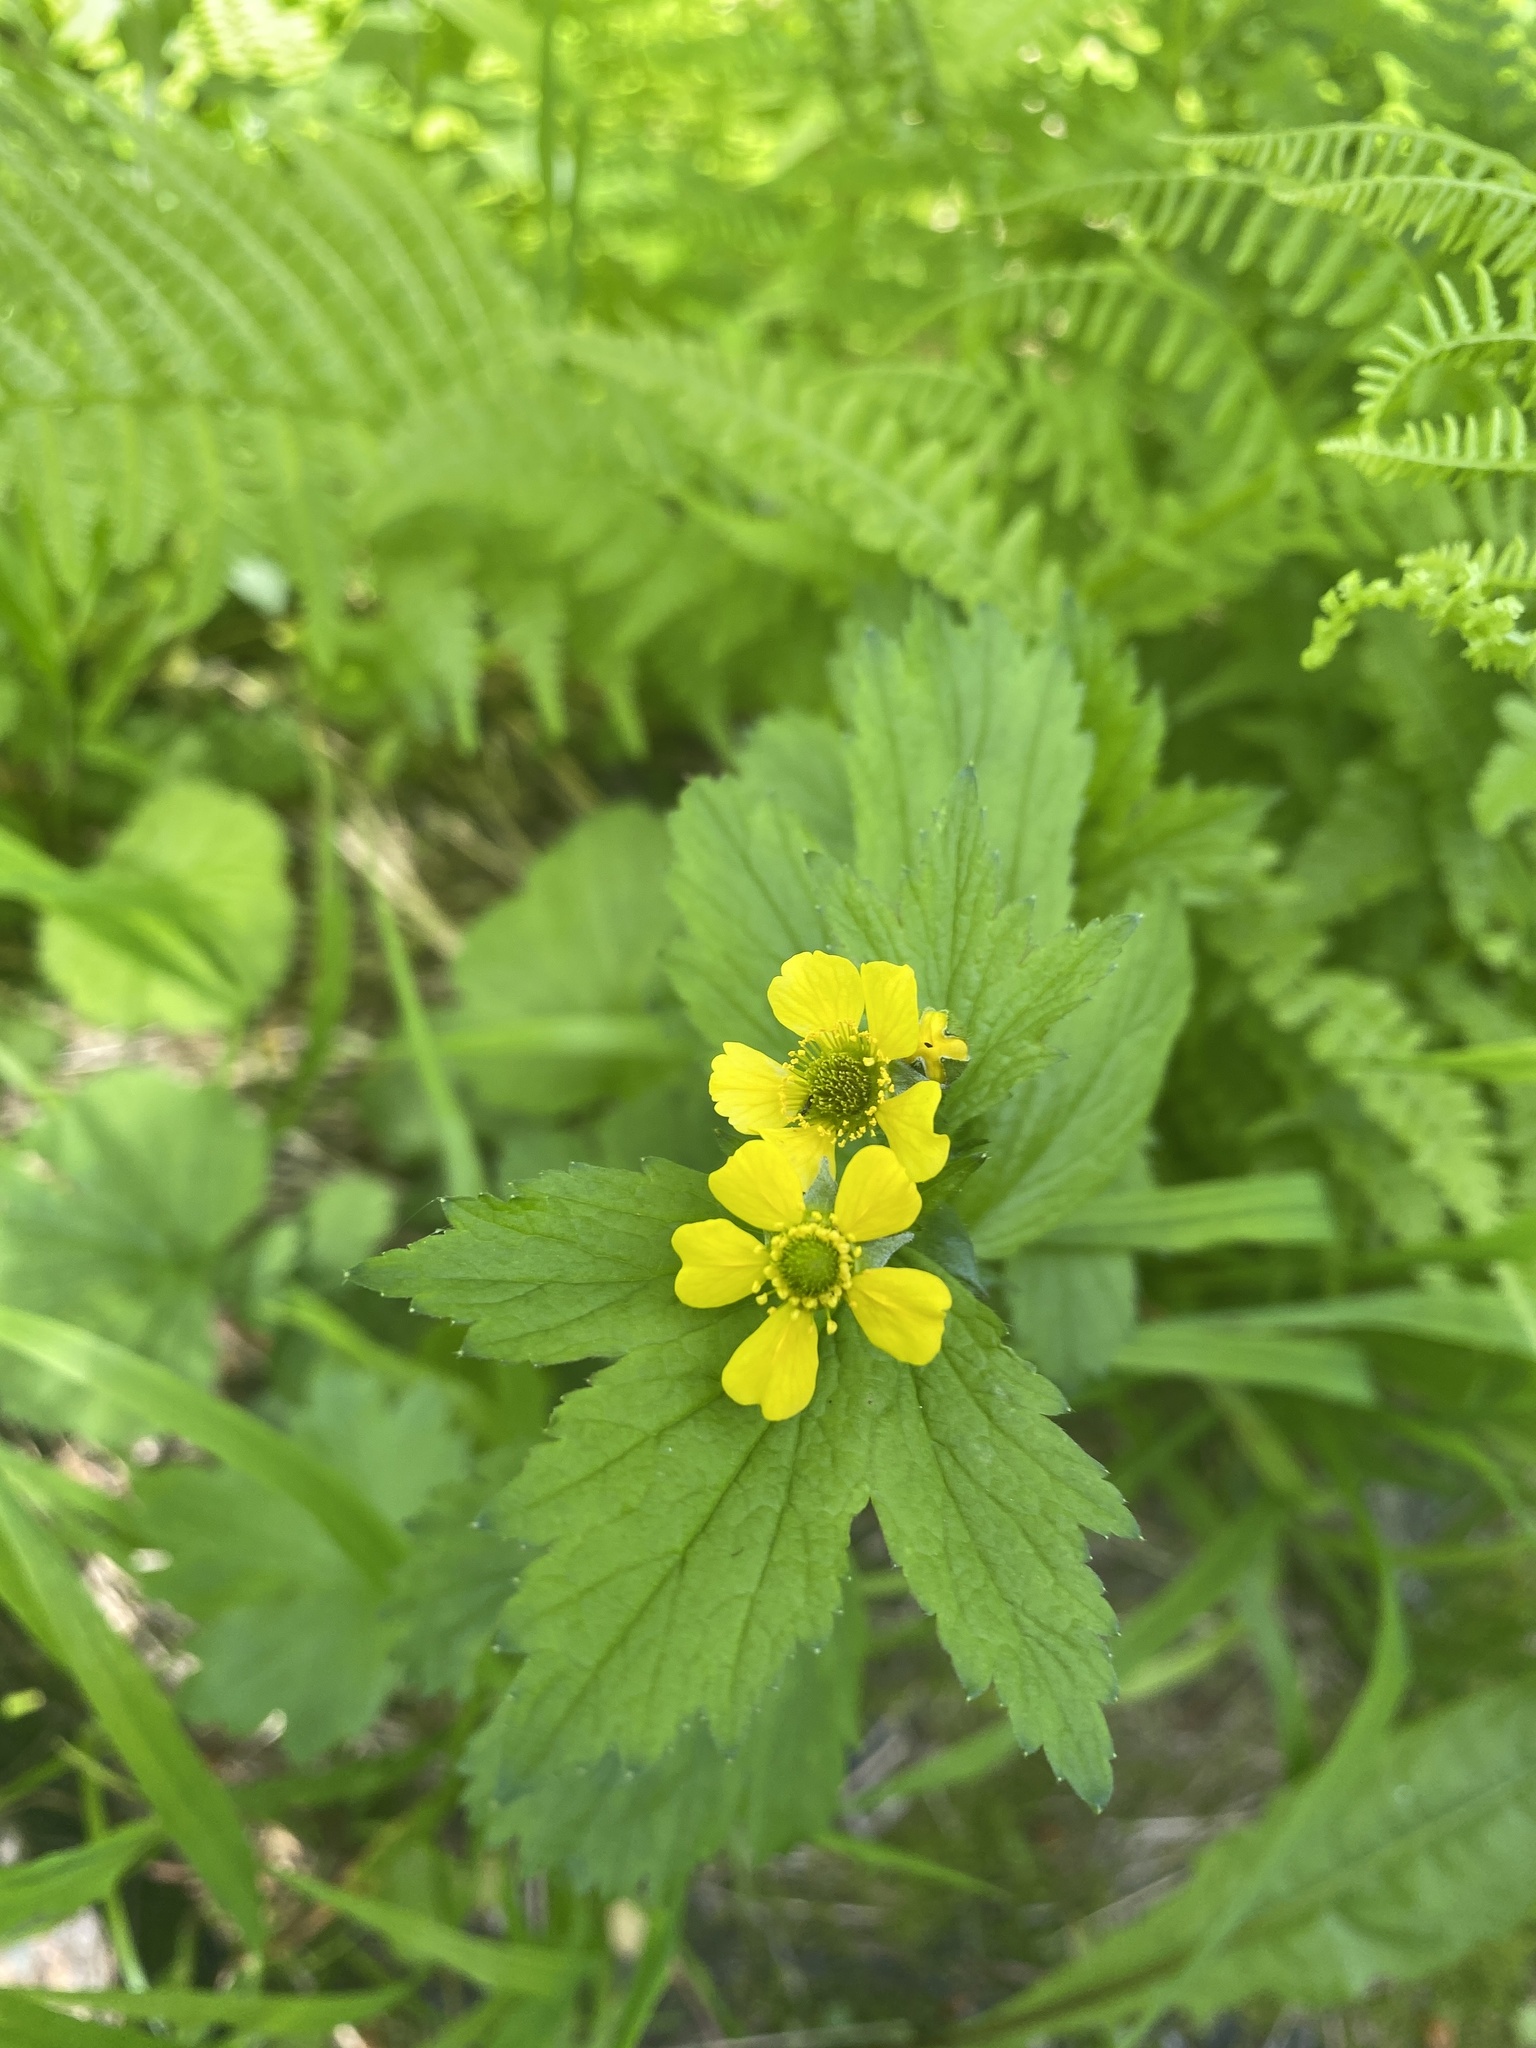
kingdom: Plantae
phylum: Tracheophyta
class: Magnoliopsida
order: Rosales
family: Rosaceae
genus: Geum
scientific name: Geum macrophyllum
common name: Large-leaved avens
